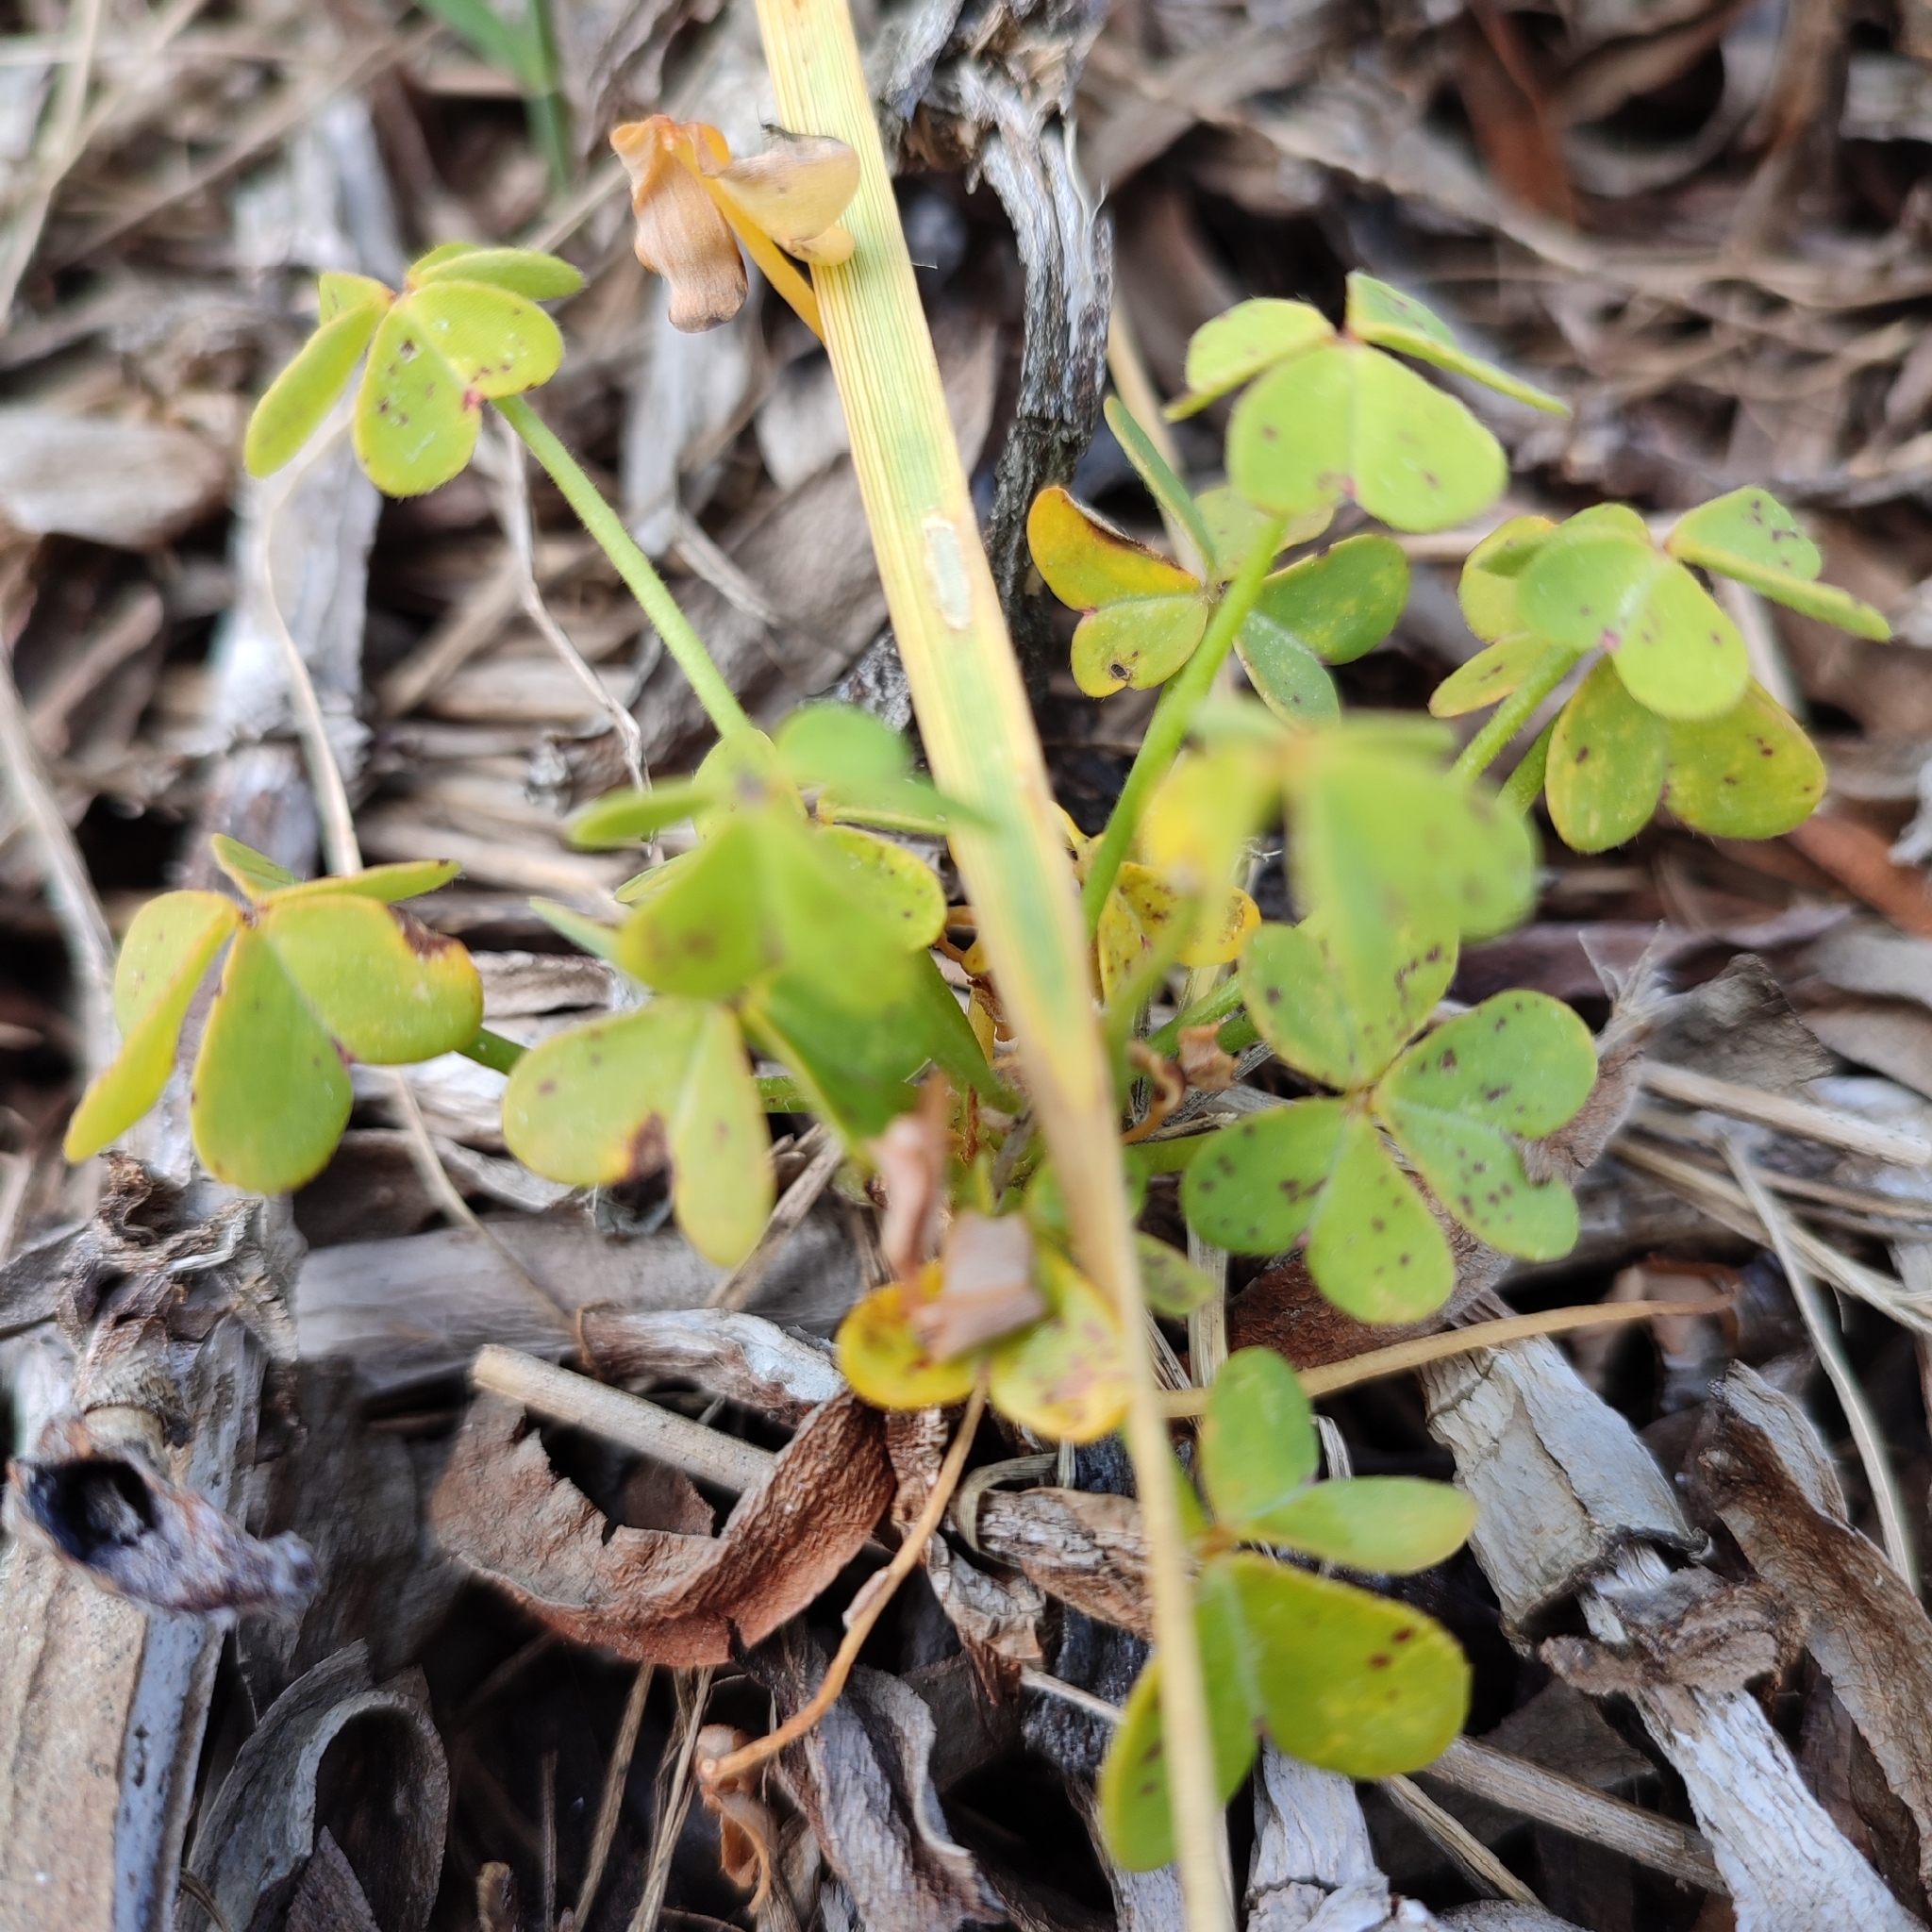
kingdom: Plantae
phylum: Tracheophyta
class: Magnoliopsida
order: Oxalidales
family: Oxalidaceae
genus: Oxalis
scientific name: Oxalis pes-caprae
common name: Bermuda-buttercup
